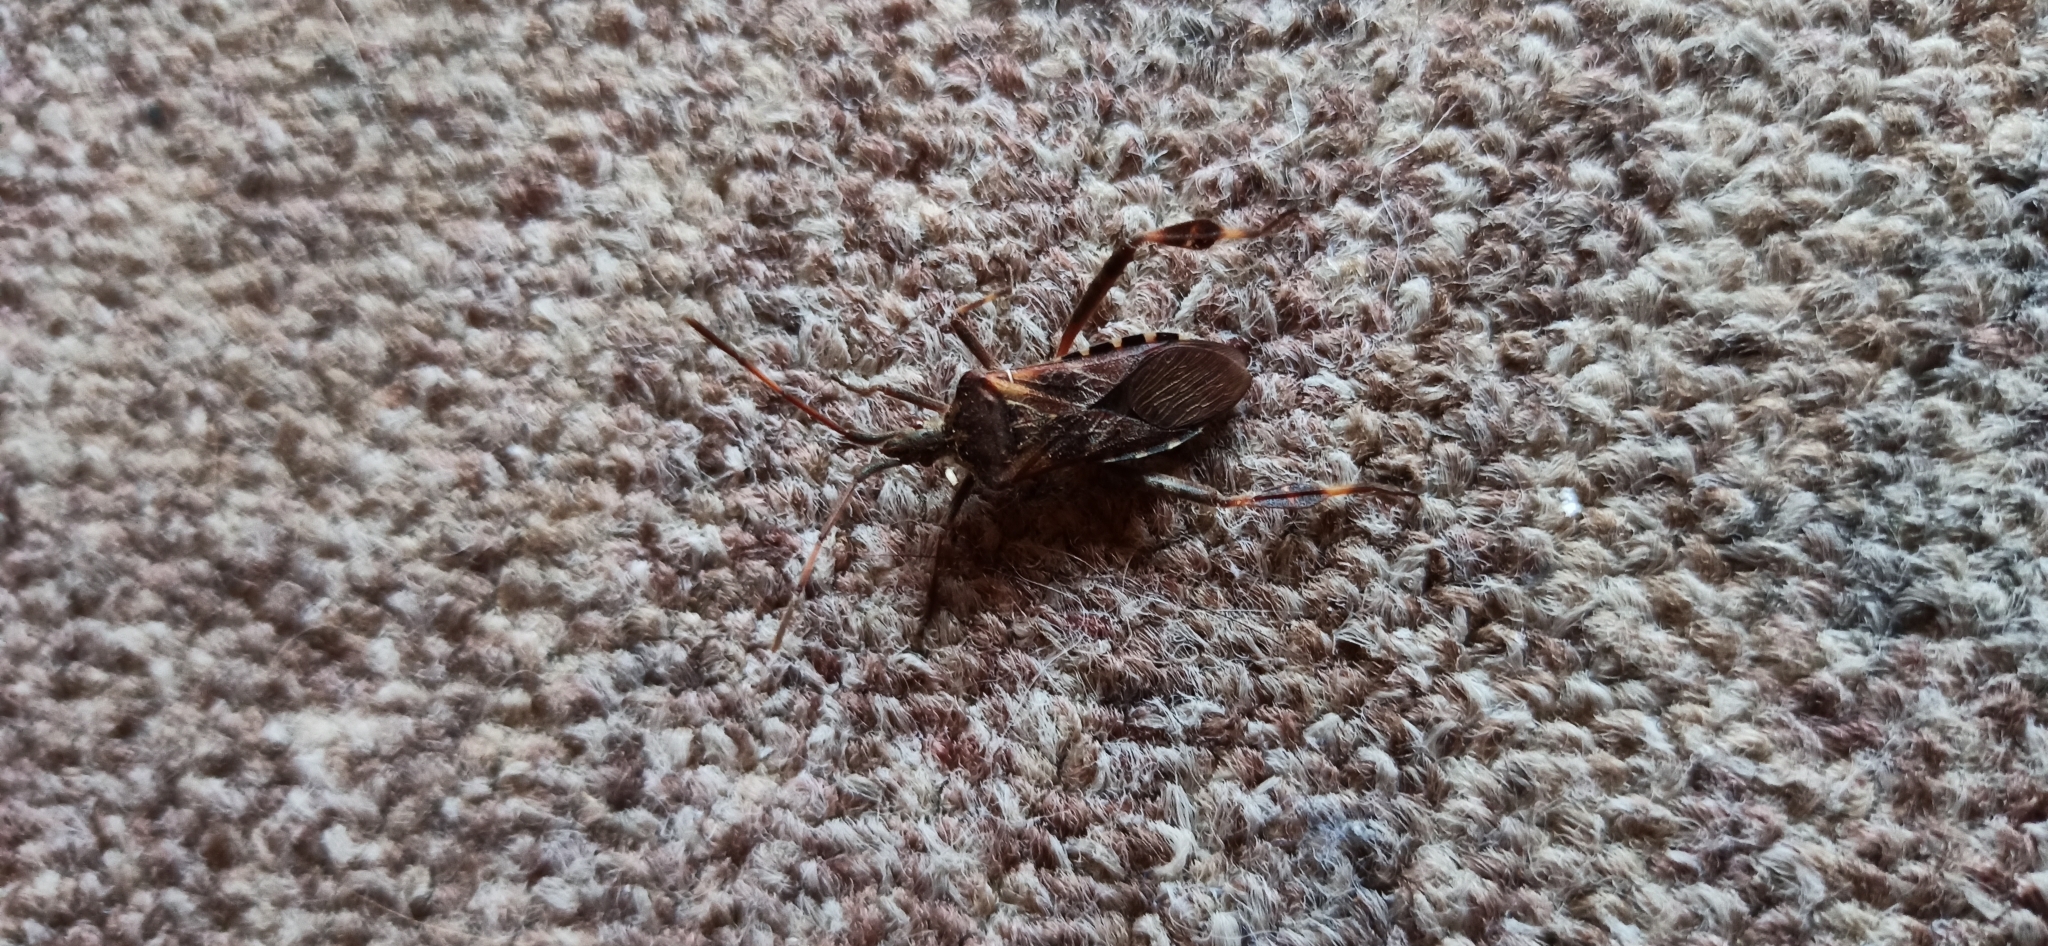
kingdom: Animalia
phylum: Arthropoda
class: Insecta
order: Hemiptera
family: Coreidae
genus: Leptoglossus
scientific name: Leptoglossus occidentalis
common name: Western conifer-seed bug
